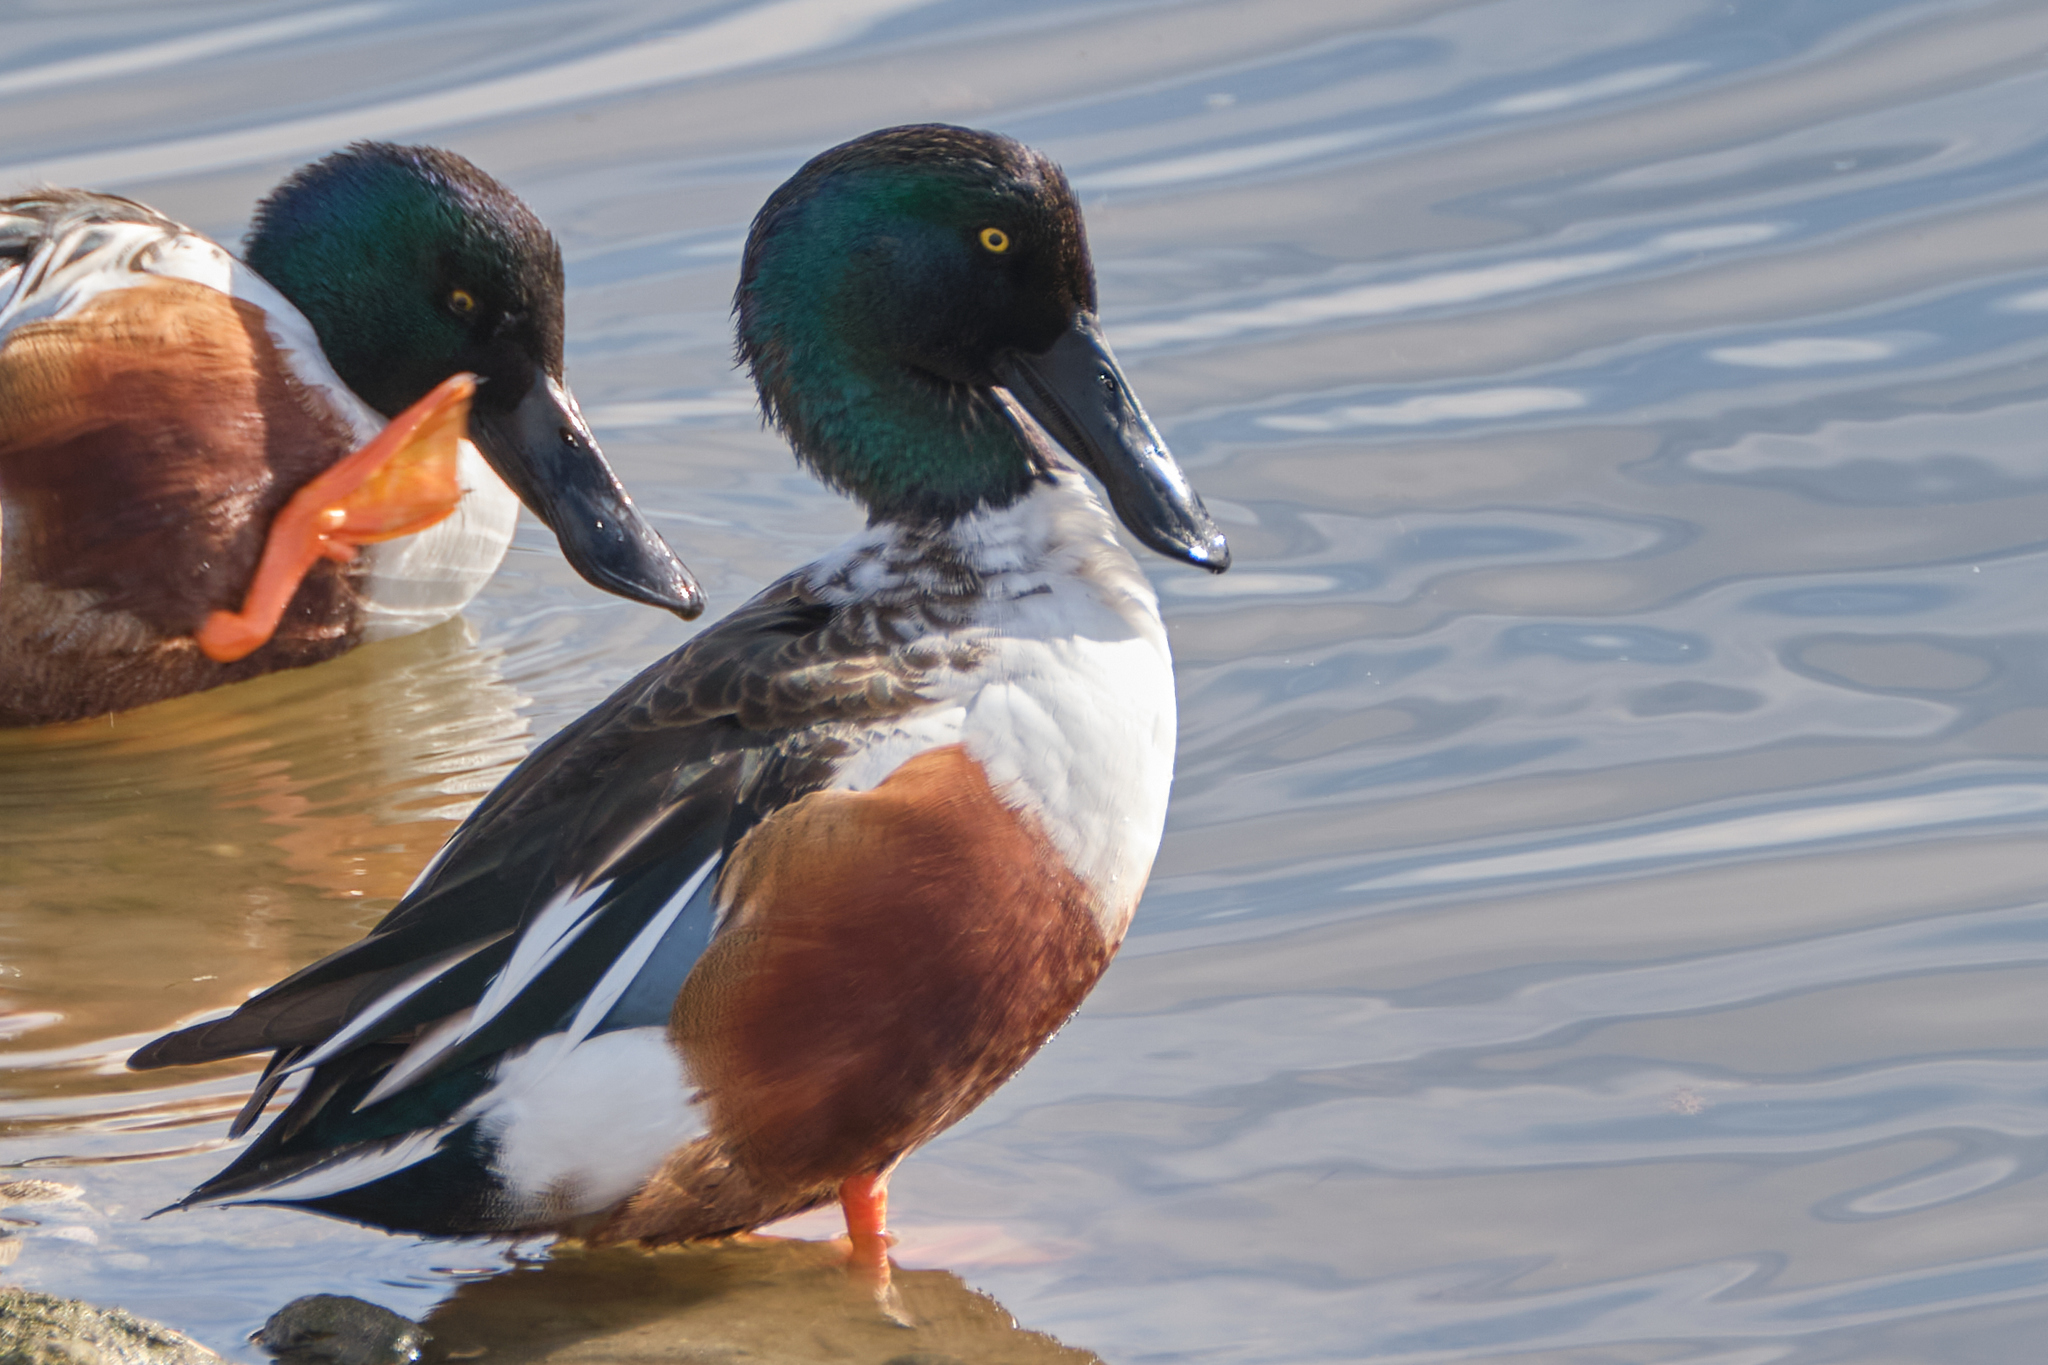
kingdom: Animalia
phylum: Chordata
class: Aves
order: Anseriformes
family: Anatidae
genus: Spatula
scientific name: Spatula clypeata
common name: Northern shoveler
